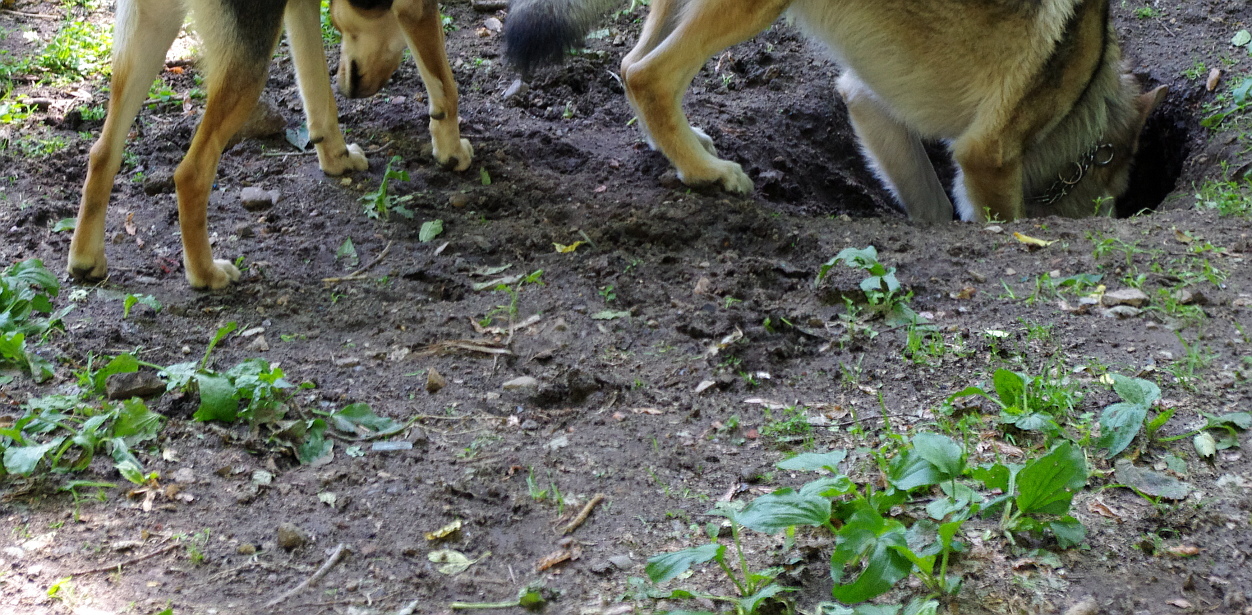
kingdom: Plantae
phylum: Tracheophyta
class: Magnoliopsida
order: Lamiales
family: Plantaginaceae
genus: Plantago
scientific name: Plantago major
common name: Common plantain
